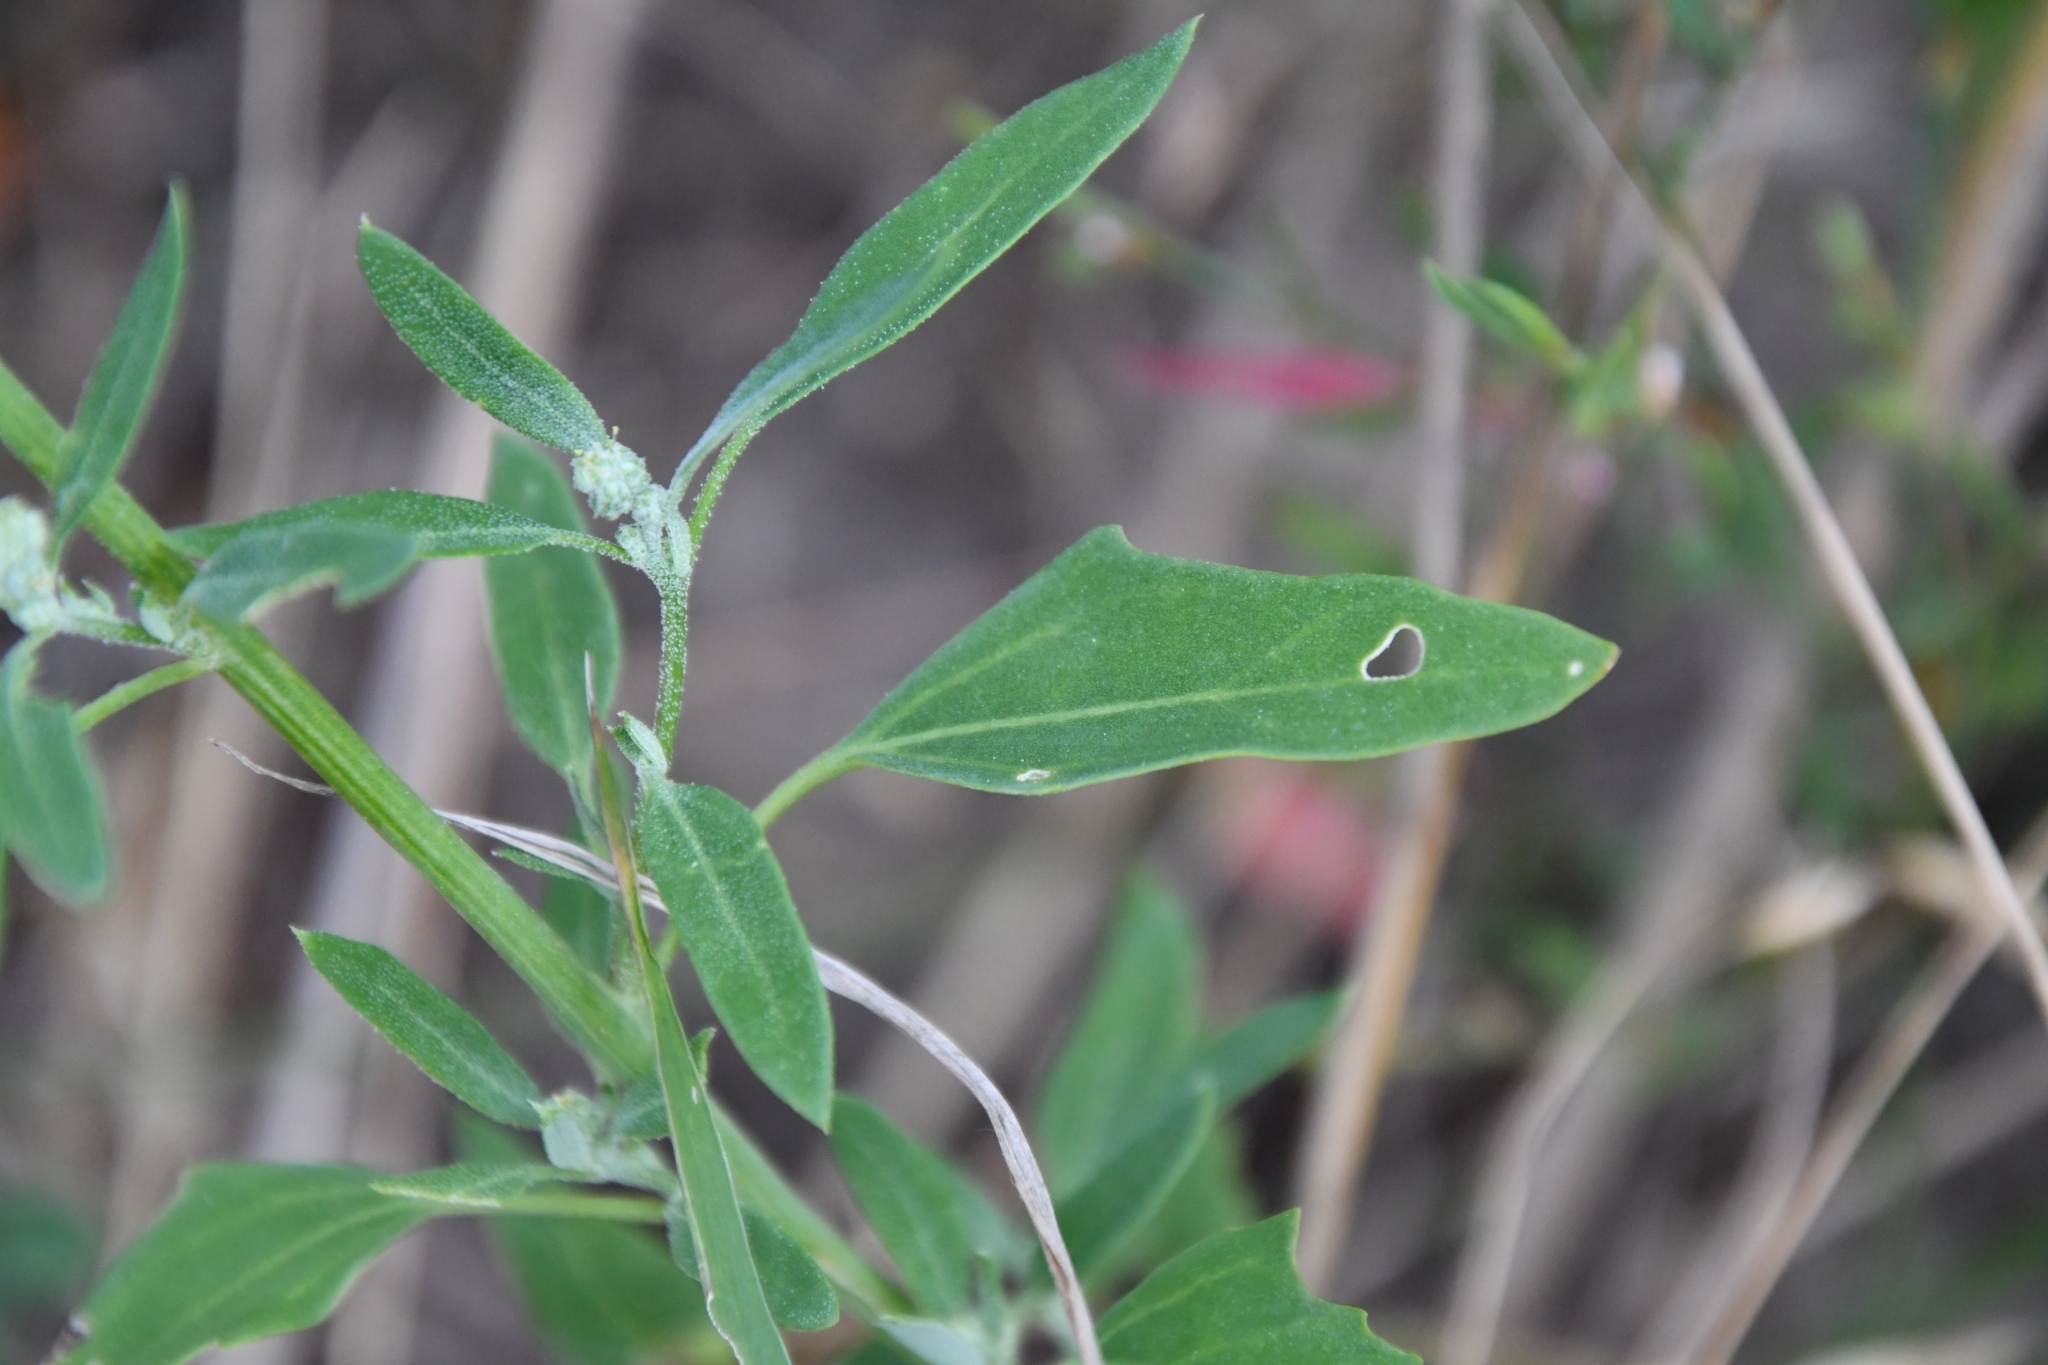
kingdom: Plantae
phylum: Tracheophyta
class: Magnoliopsida
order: Caryophyllales
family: Amaranthaceae
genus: Chenopodium
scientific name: Chenopodium album
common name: Fat-hen
